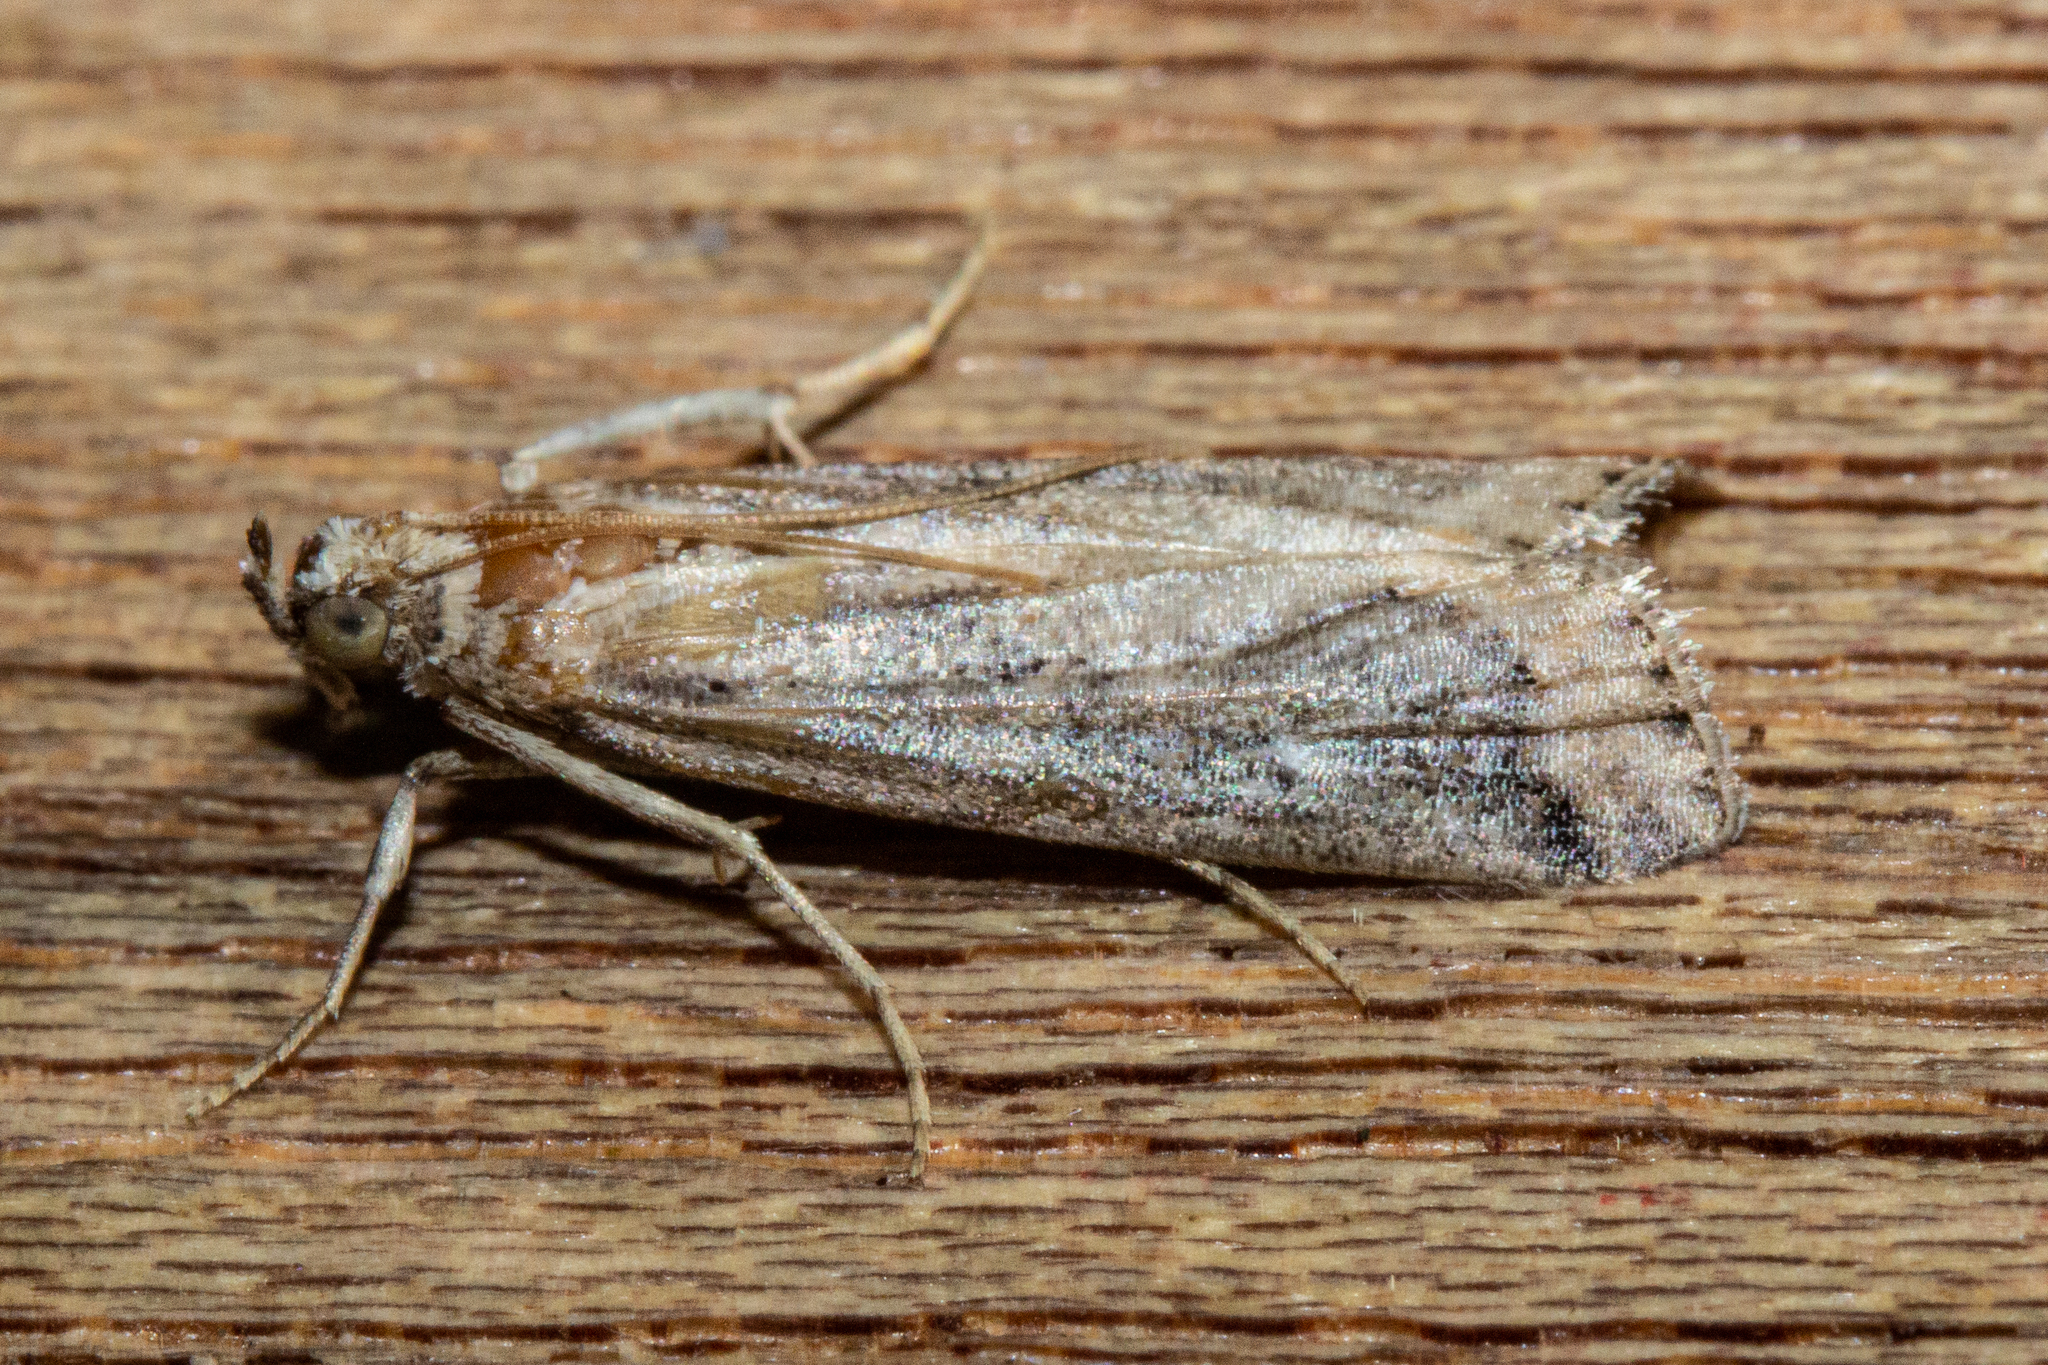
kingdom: Animalia
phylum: Arthropoda
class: Insecta
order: Lepidoptera
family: Pyralidae
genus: Pempelia
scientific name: Pempelia genistella
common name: Gorse knot-horn
